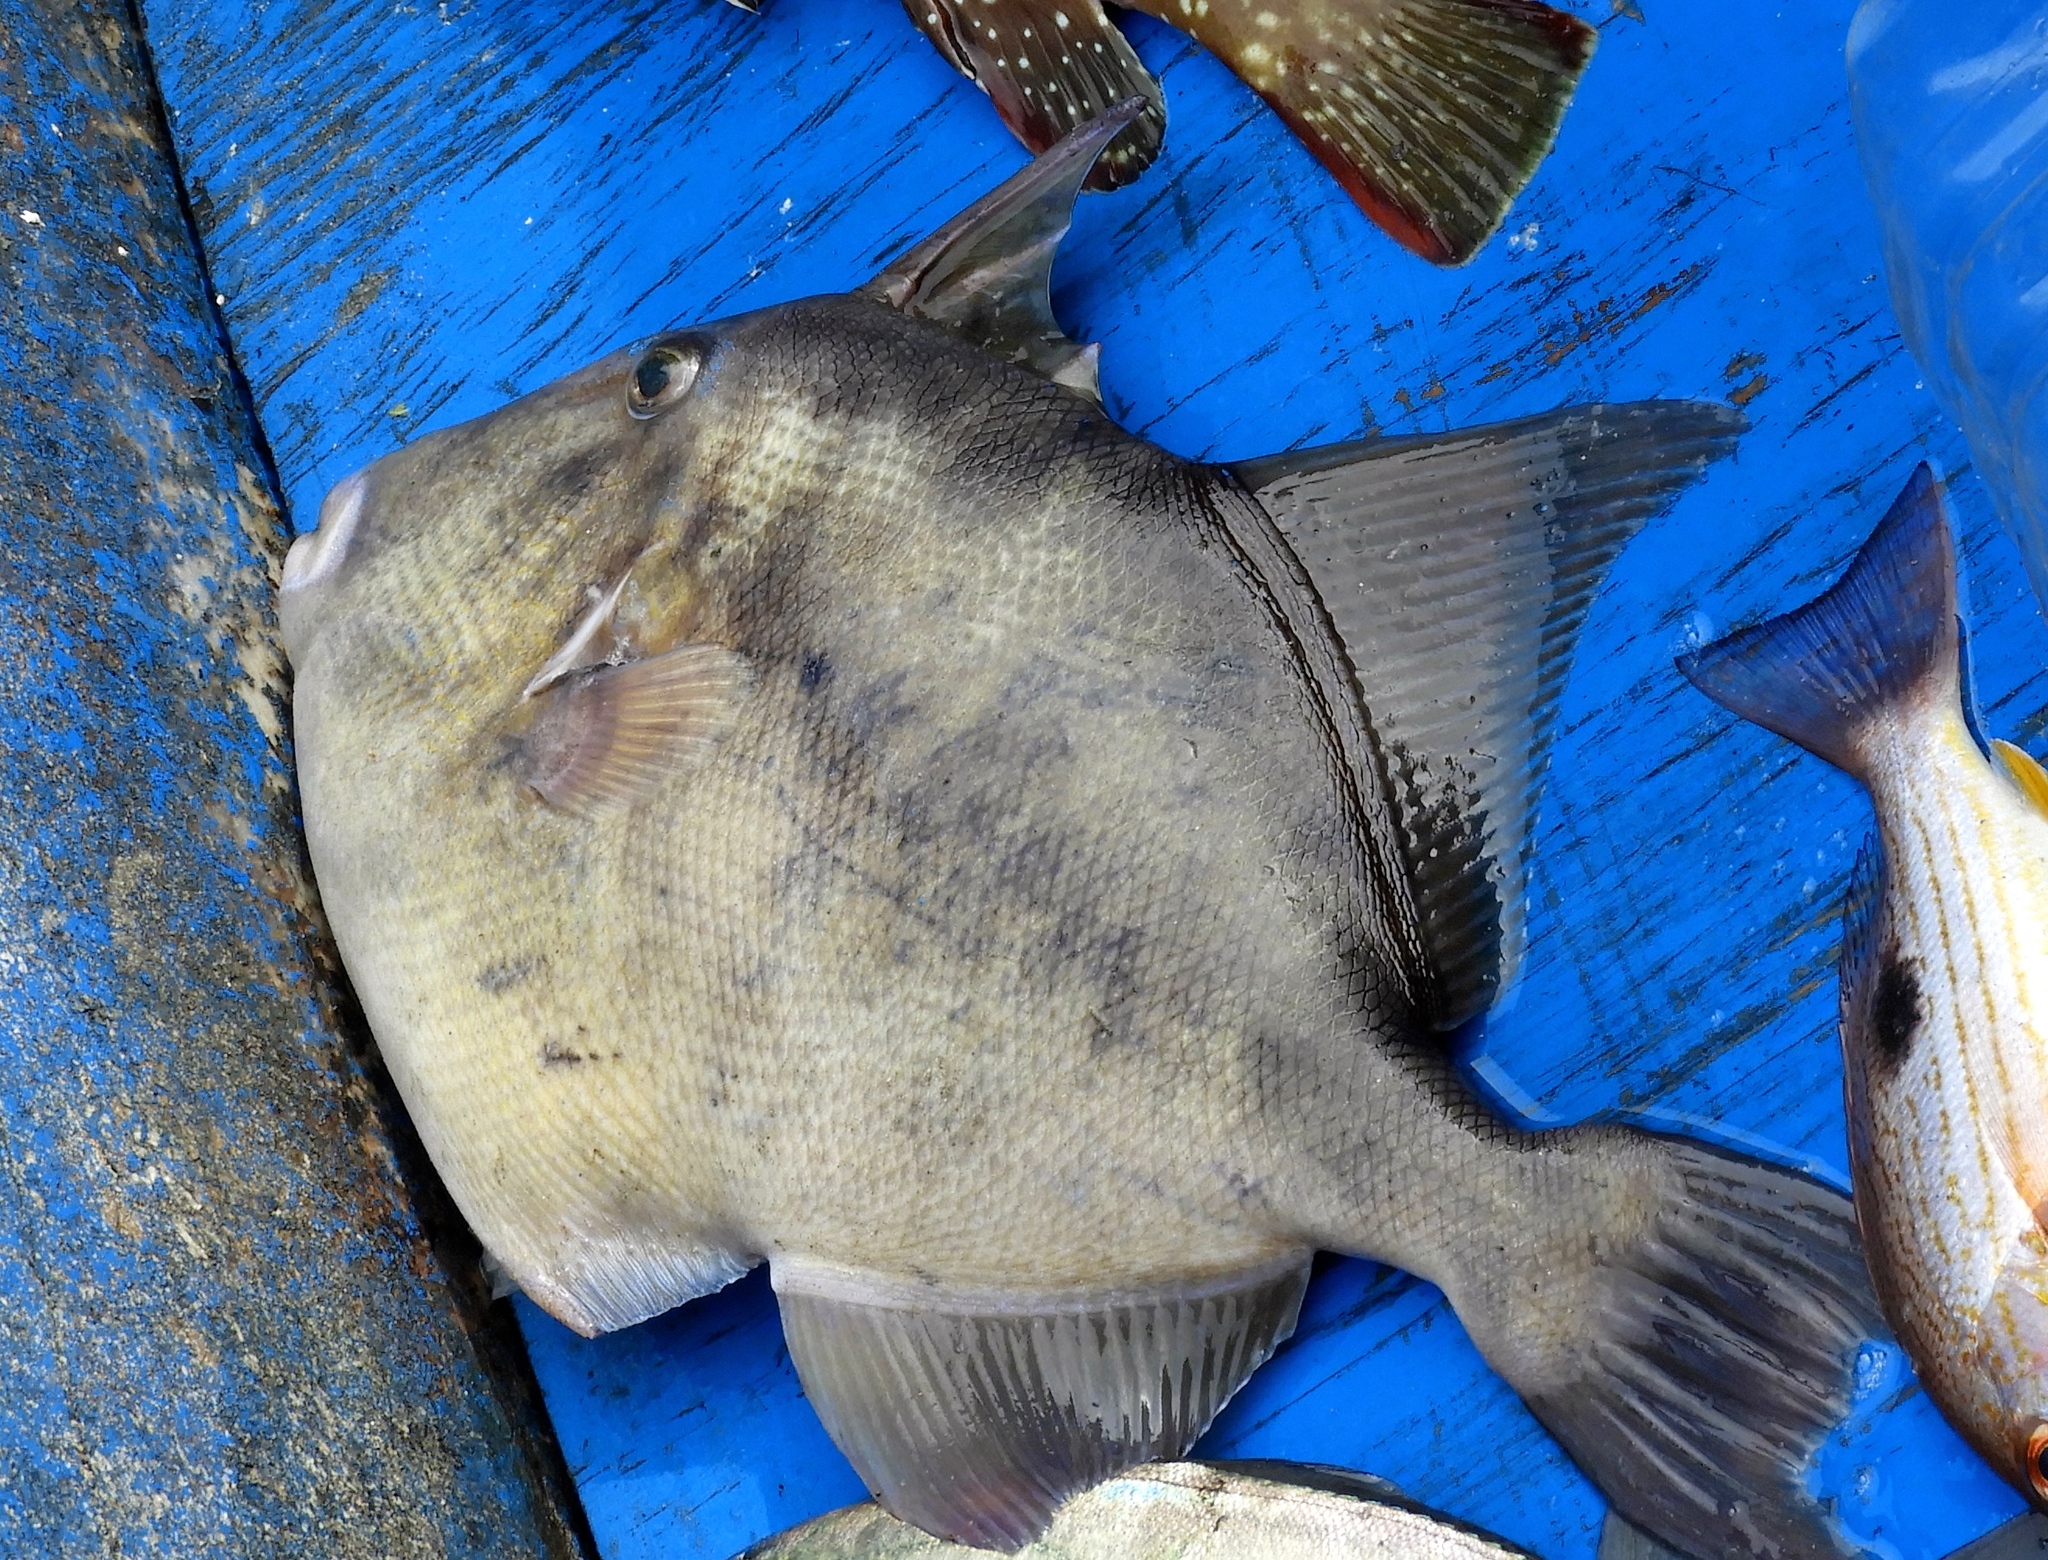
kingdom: Animalia
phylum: Chordata
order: Tetraodontiformes
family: Balistidae
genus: Balistes
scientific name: Balistes polylepis
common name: Finescale triggerfish
